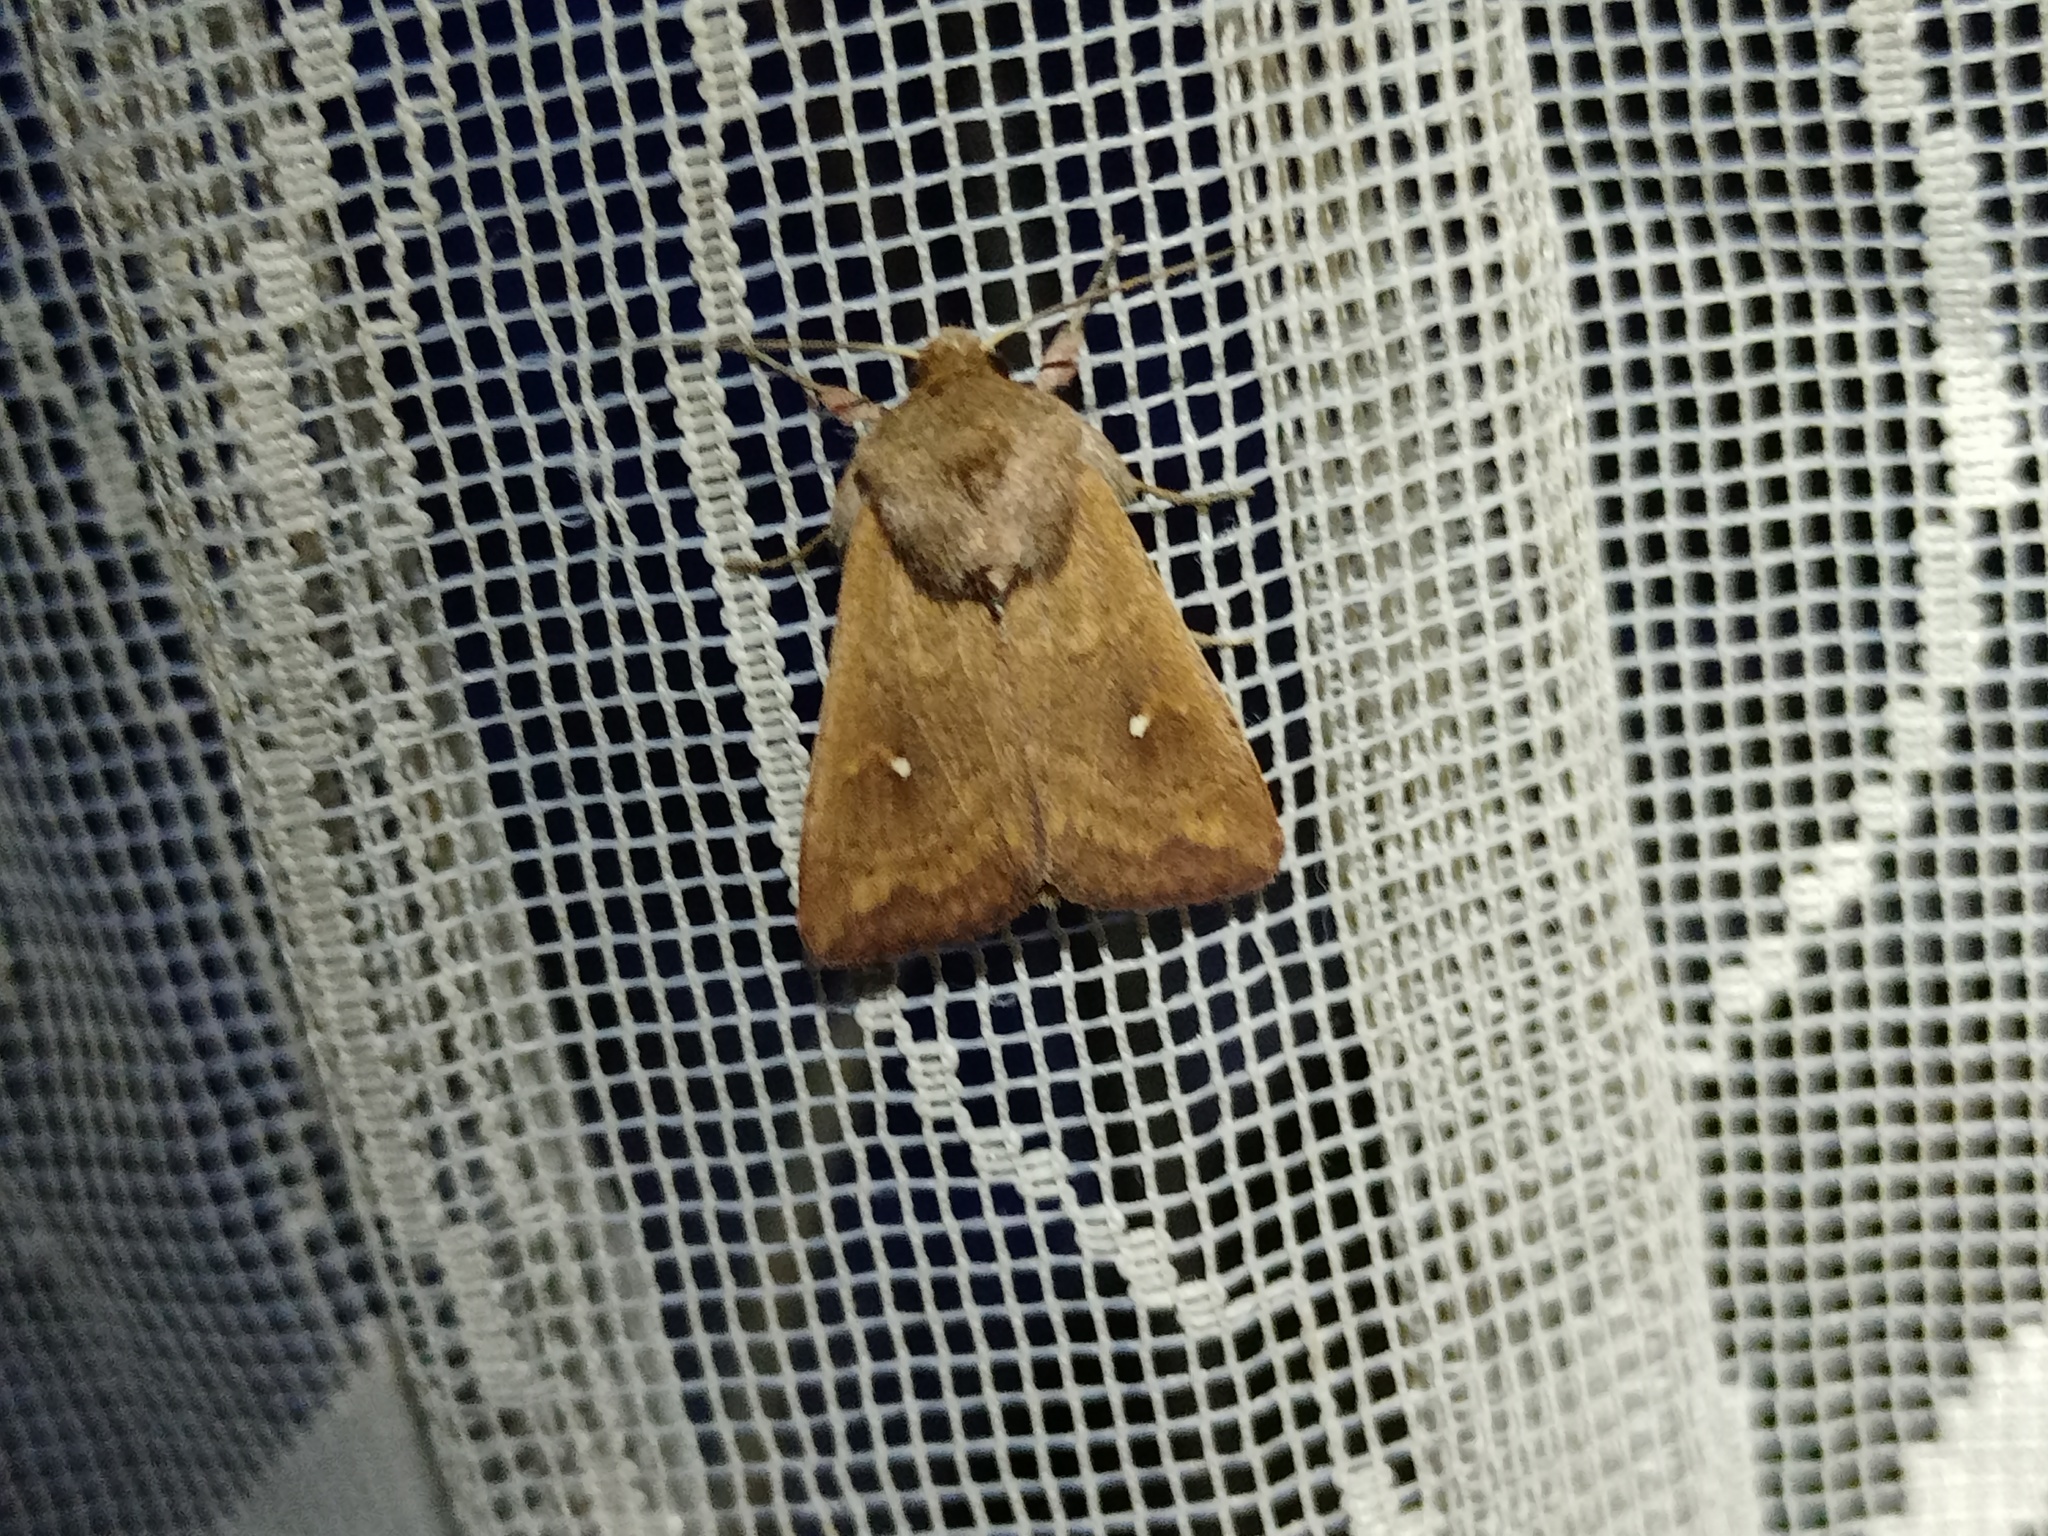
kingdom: Animalia
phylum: Arthropoda
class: Insecta
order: Lepidoptera
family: Noctuidae
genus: Mythimna
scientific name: Mythimna albipuncta
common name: White-point
